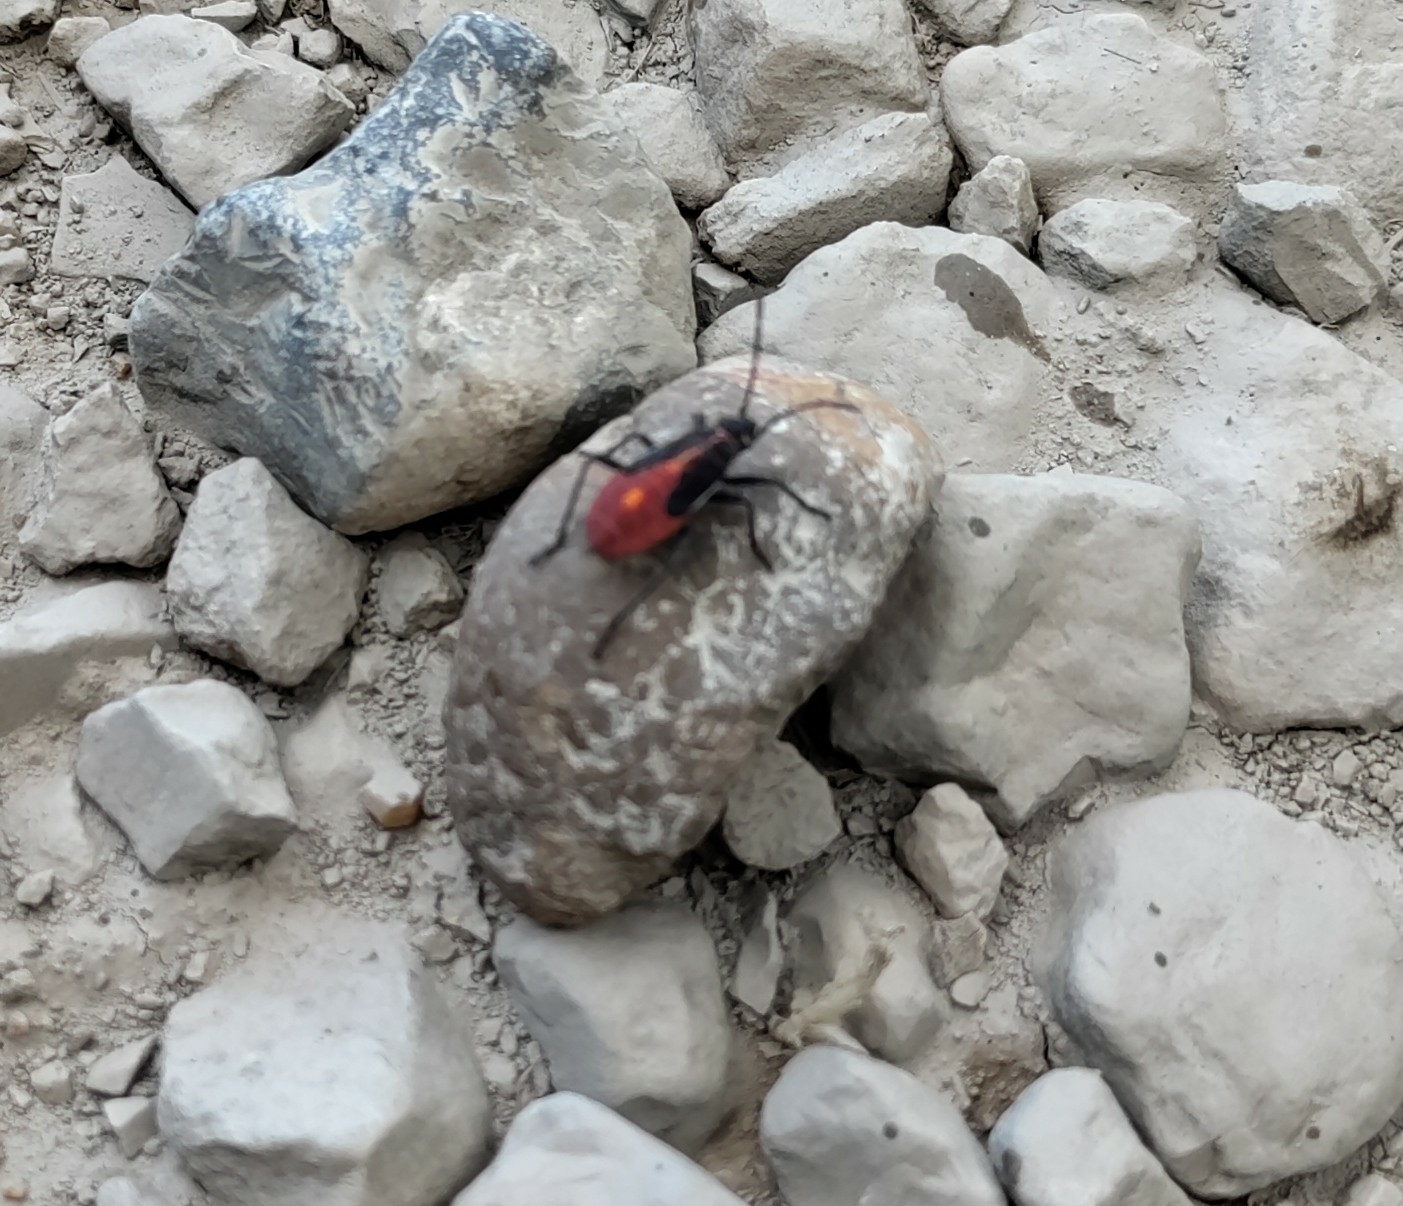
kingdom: Animalia
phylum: Arthropoda
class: Insecta
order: Hemiptera
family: Rhopalidae
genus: Boisea
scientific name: Boisea trivittata
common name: Boxelder bug
